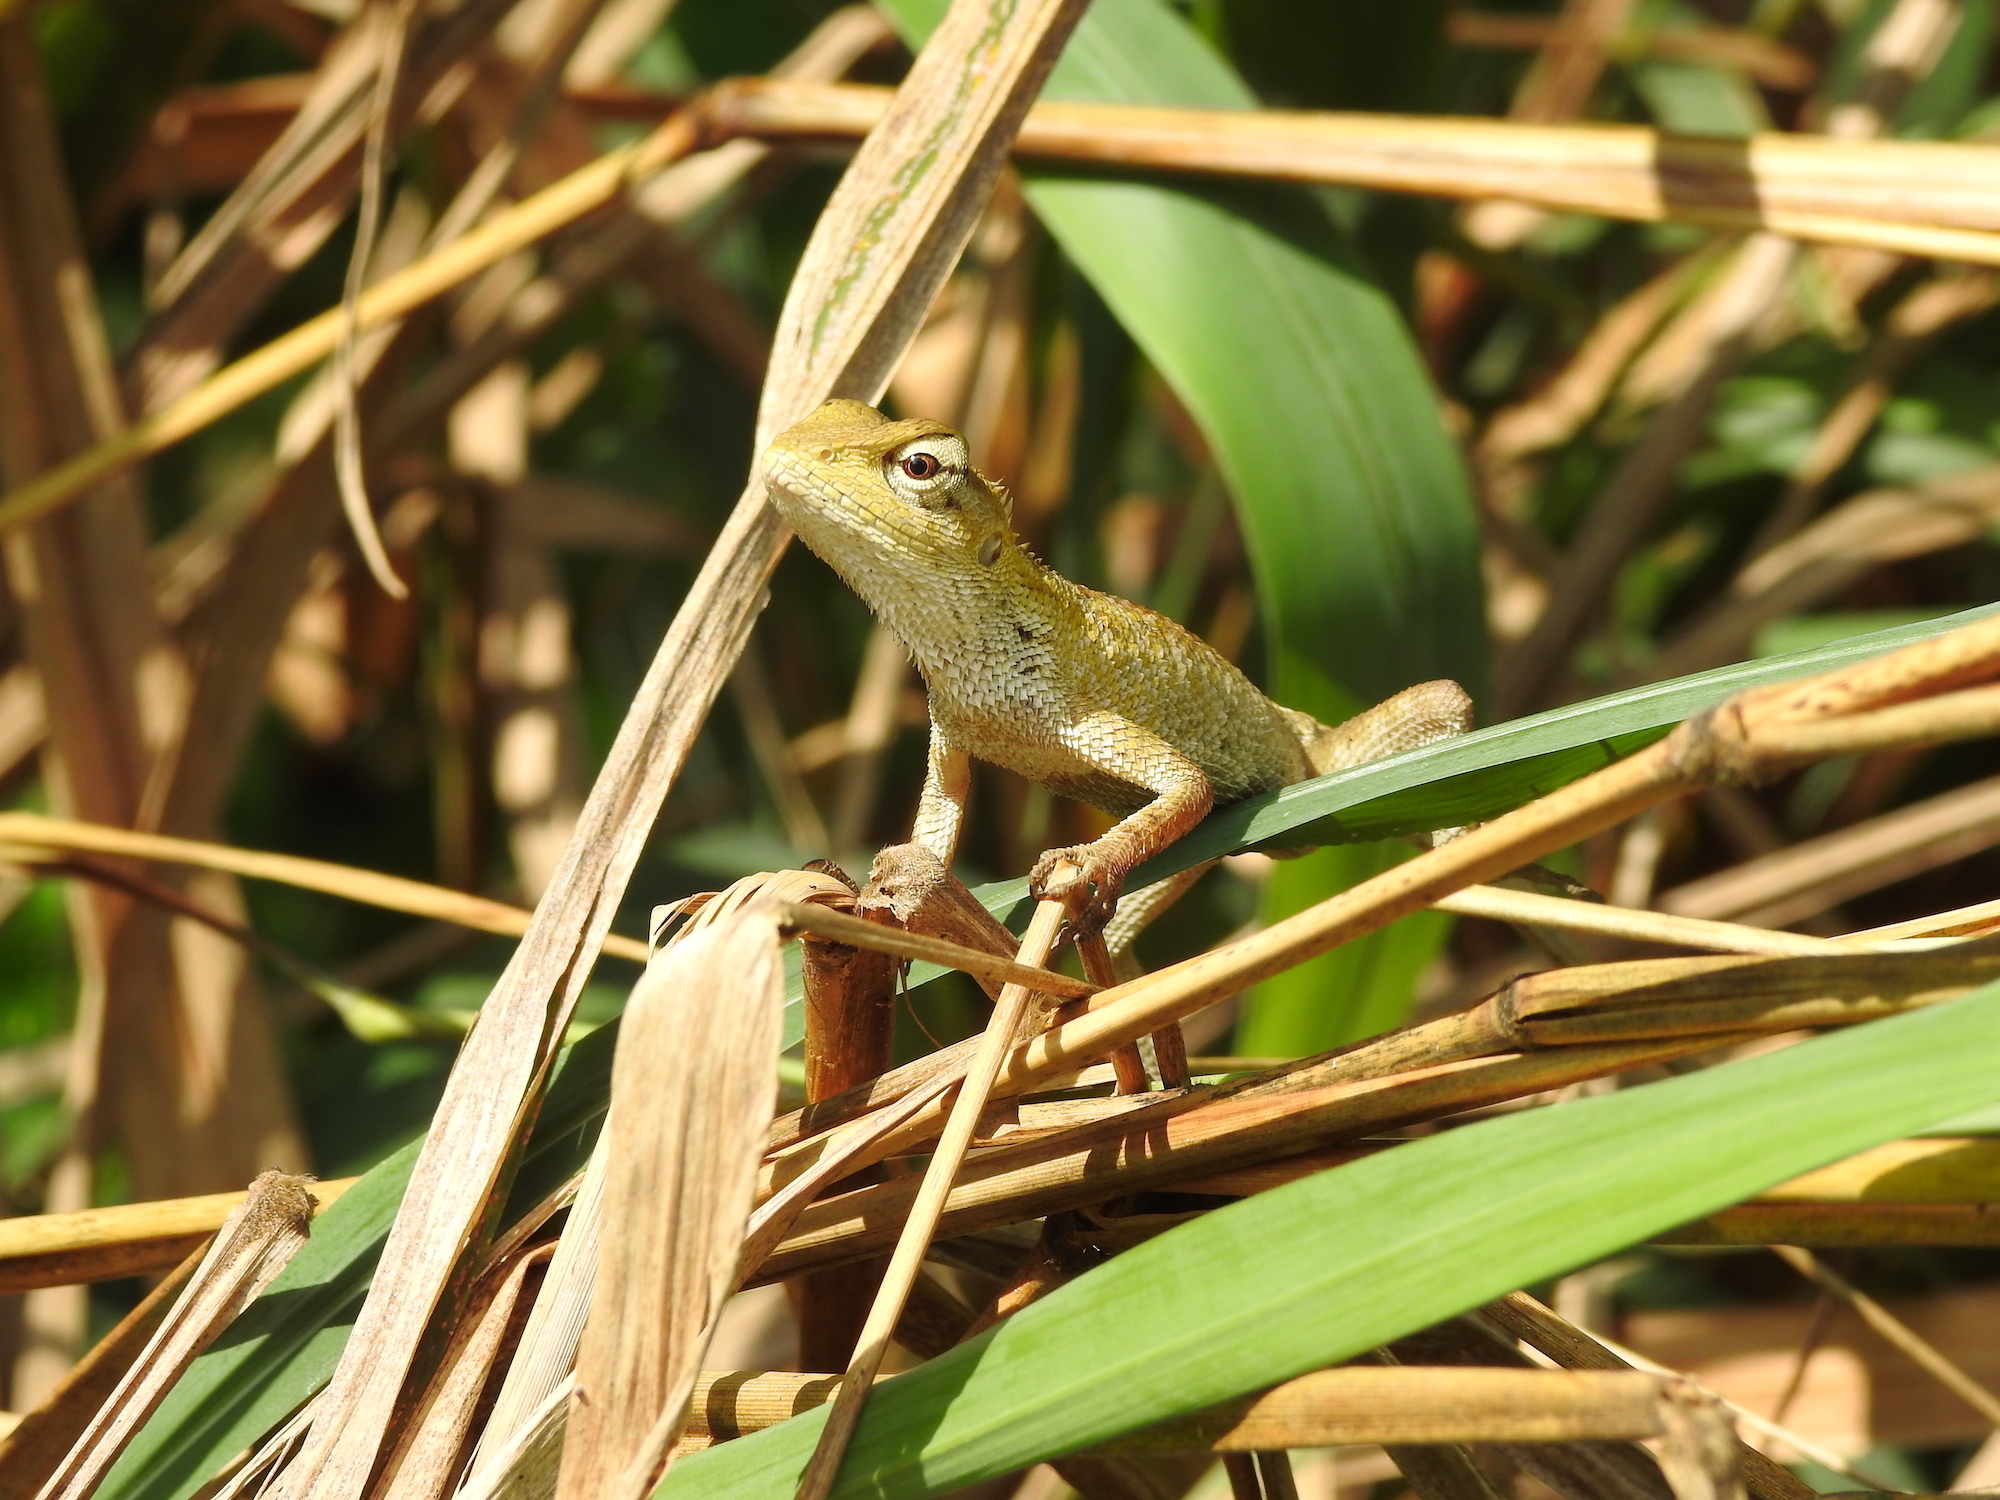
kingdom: Animalia
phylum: Chordata
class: Squamata
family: Agamidae
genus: Calotes
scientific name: Calotes versicolor
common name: Oriental garden lizard
